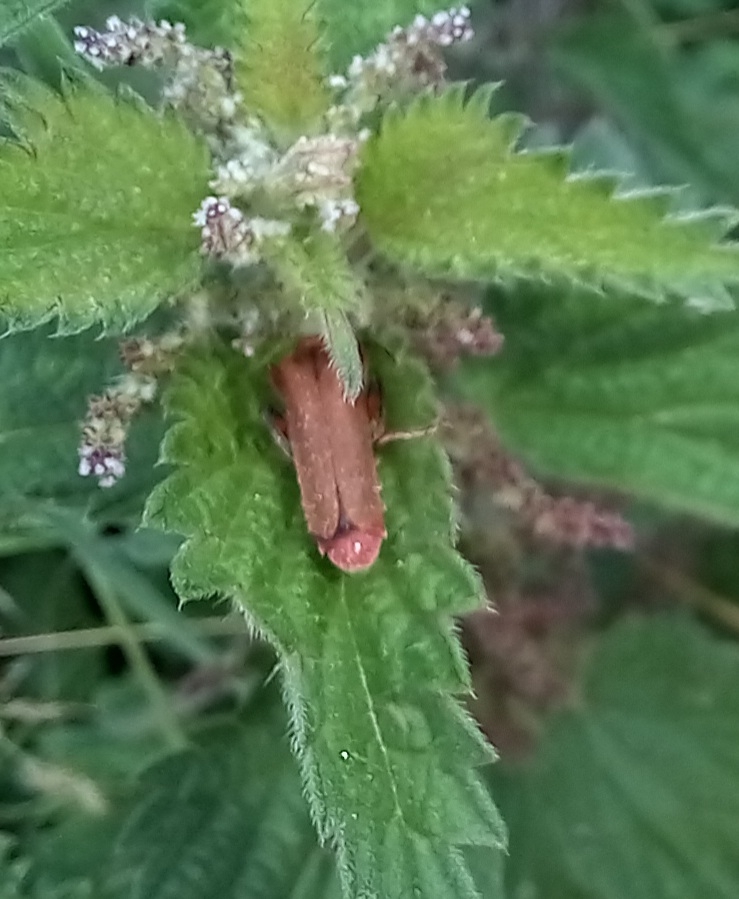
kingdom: Animalia
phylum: Arthropoda
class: Insecta
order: Coleoptera
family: Cantharidae
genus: Cantharis
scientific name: Cantharis livida
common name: Livid soldier beetle
